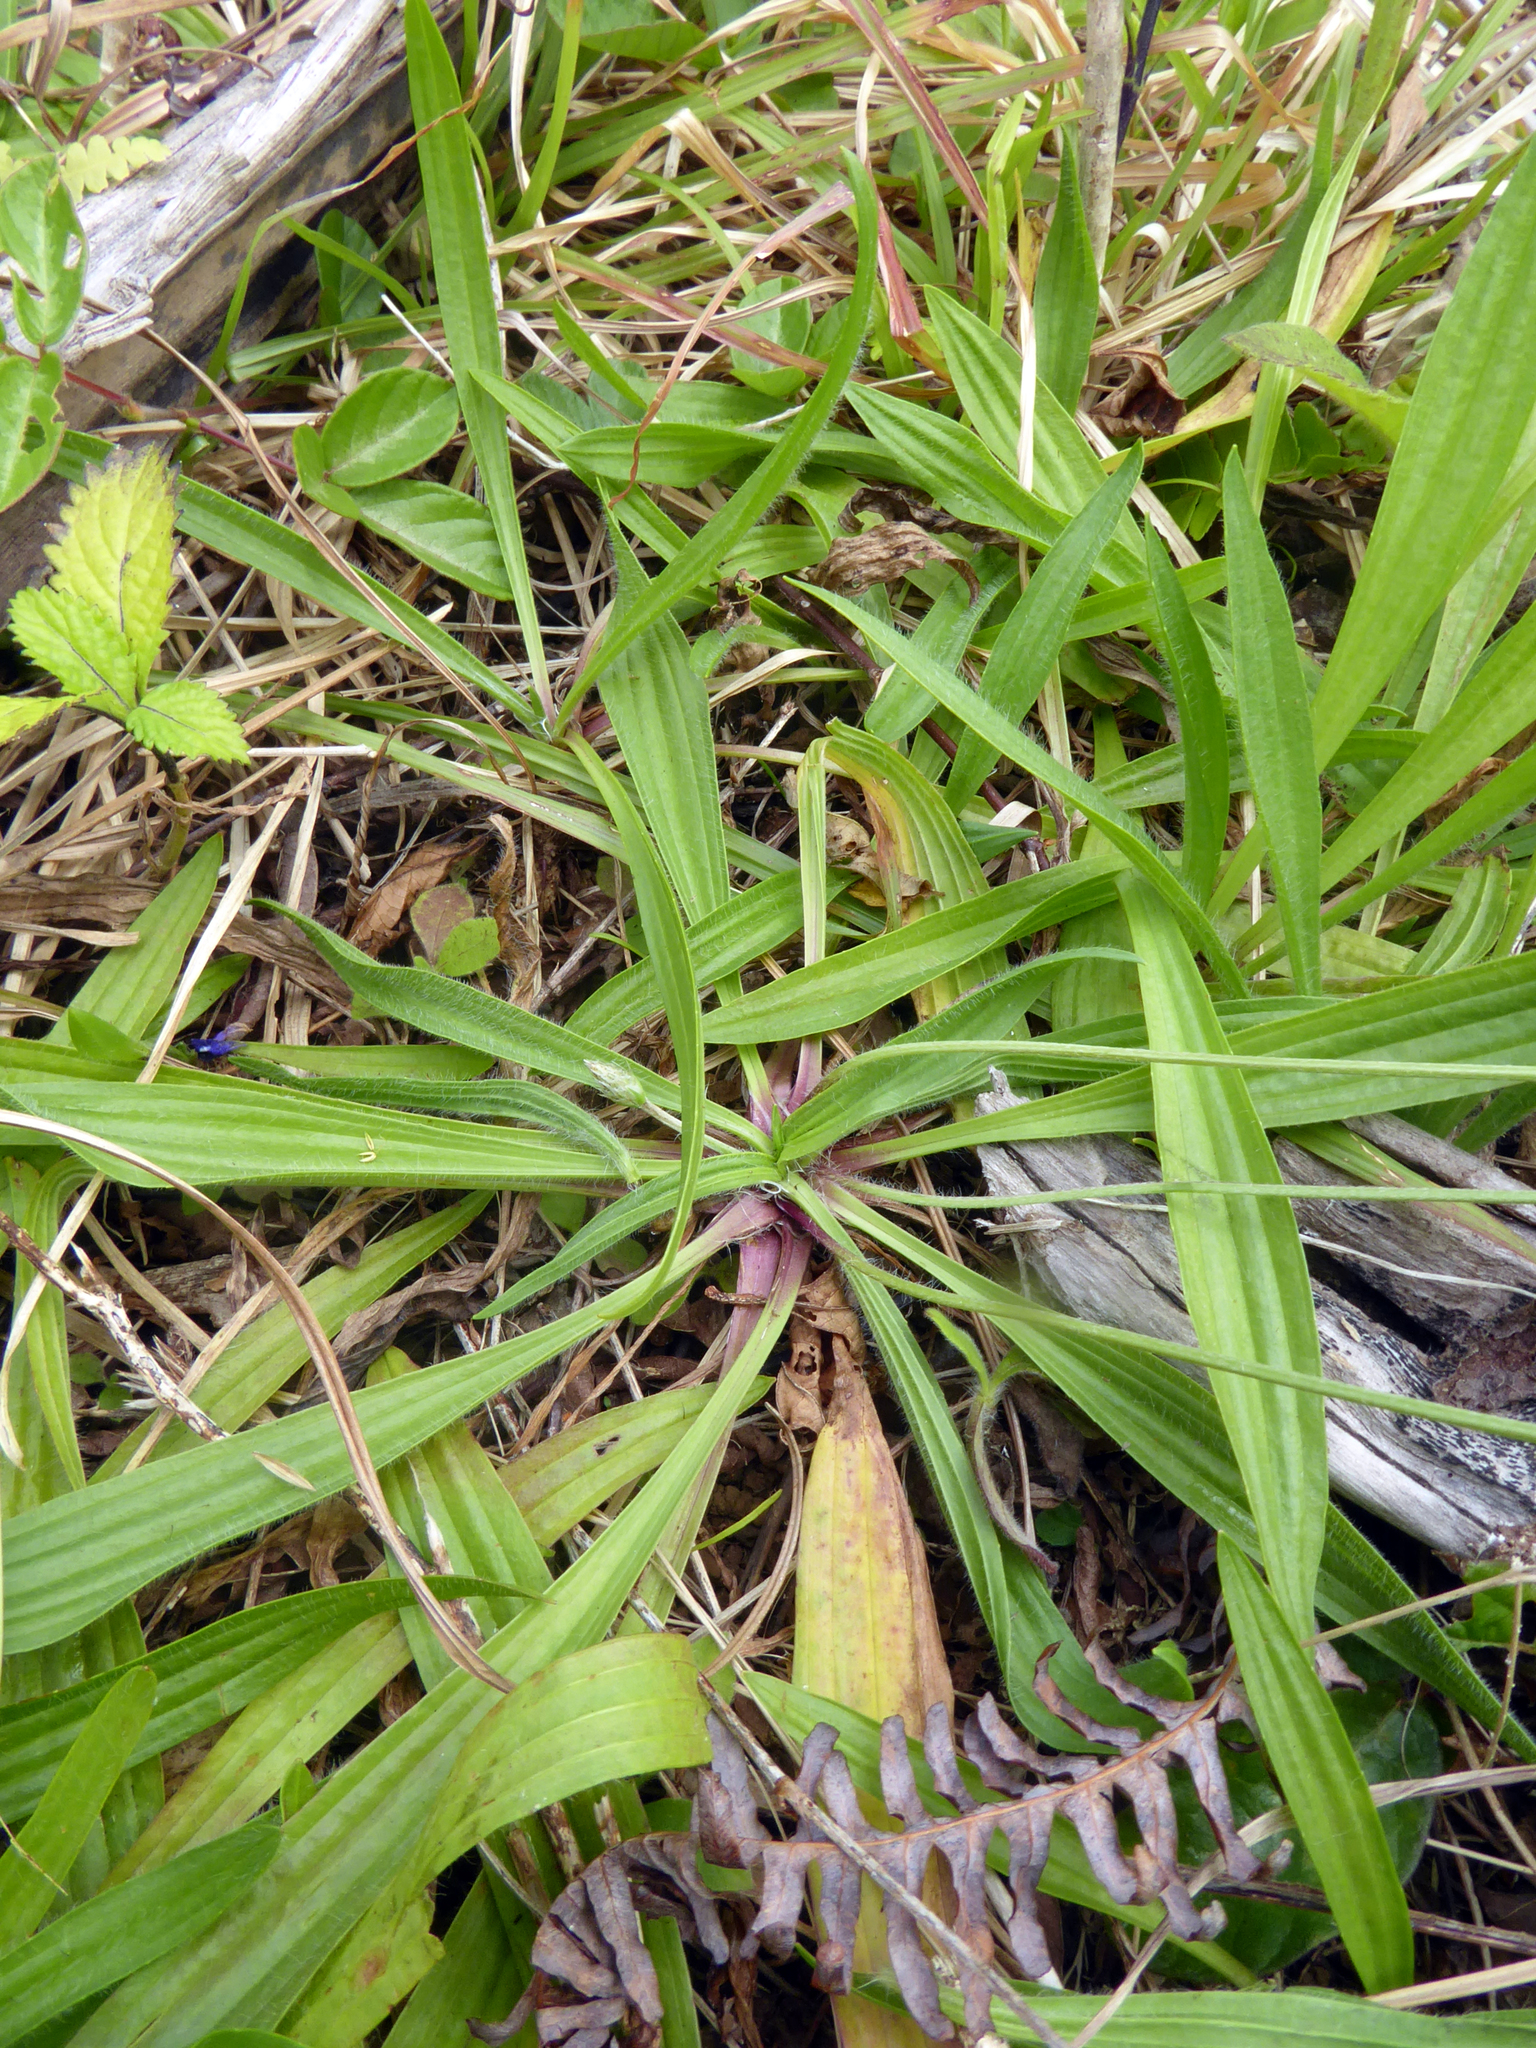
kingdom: Plantae
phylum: Tracheophyta
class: Magnoliopsida
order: Lamiales
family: Plantaginaceae
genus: Plantago
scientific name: Plantago lanceolata
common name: Ribwort plantain
